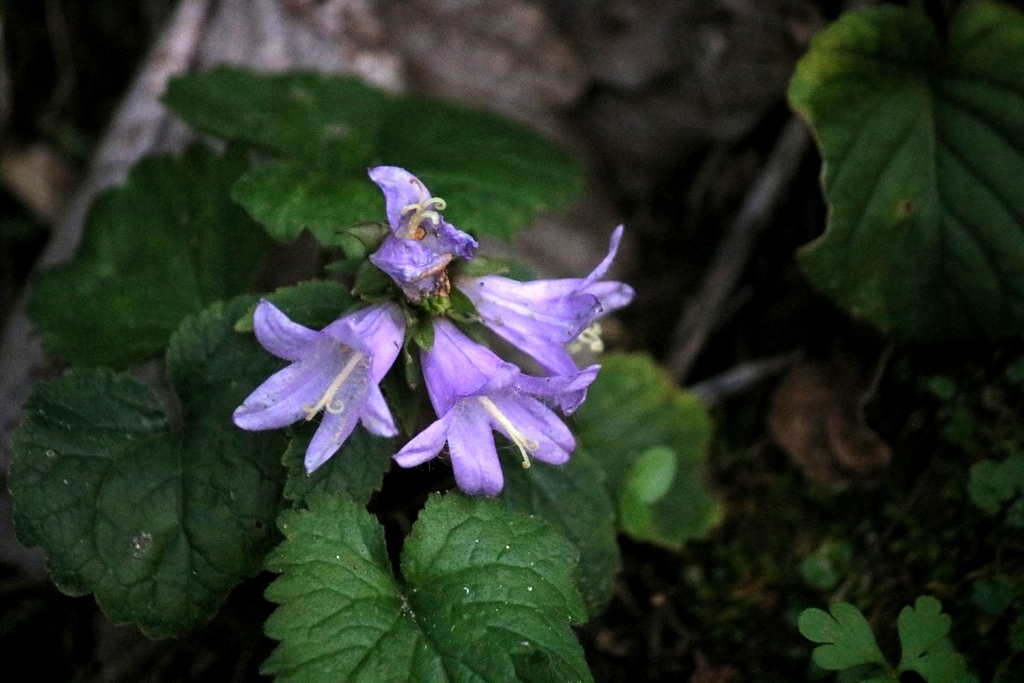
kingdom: Plantae
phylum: Tracheophyta
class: Magnoliopsida
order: Asterales
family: Campanulaceae
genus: Campanula
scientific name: Campanula trachelium
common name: Nettle-leaved bellflower
